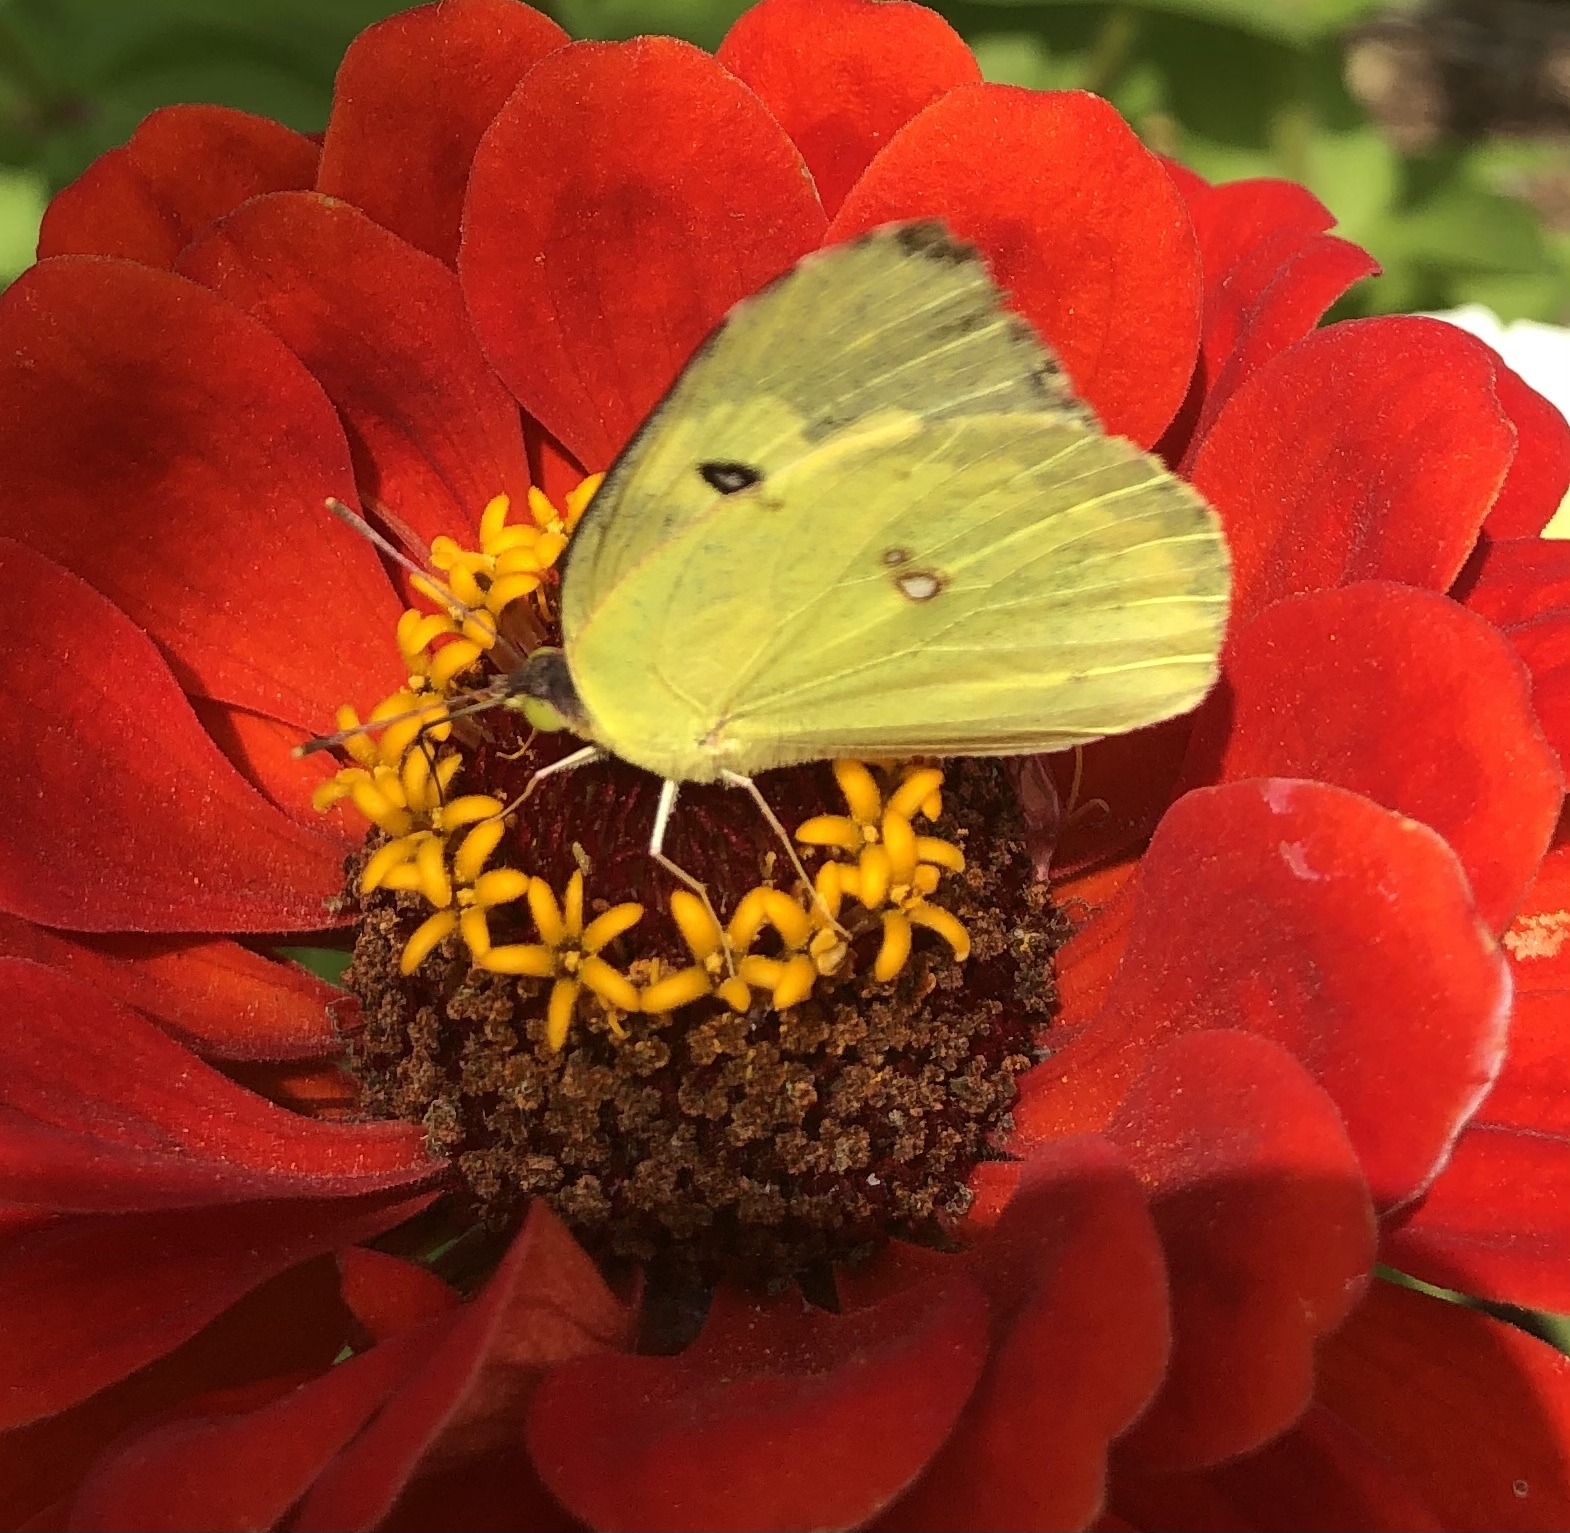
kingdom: Animalia
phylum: Arthropoda
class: Insecta
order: Lepidoptera
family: Pieridae
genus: Zerene
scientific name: Zerene cesonia
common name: Southern dogface
